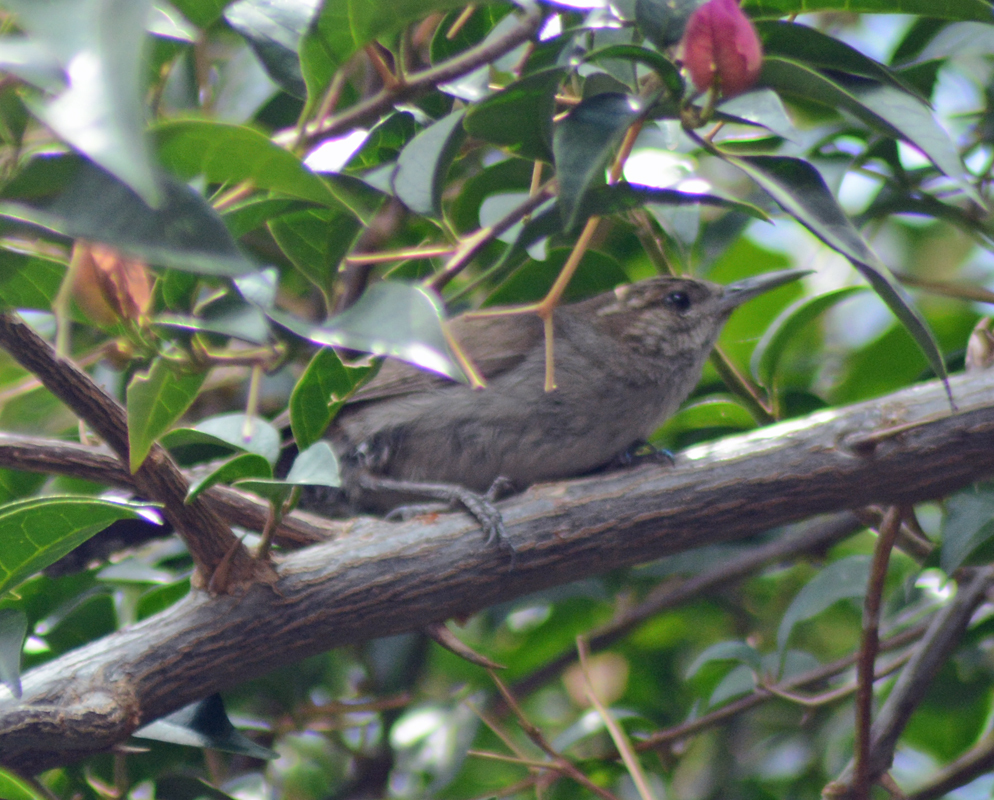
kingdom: Animalia
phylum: Chordata
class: Aves
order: Passeriformes
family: Troglodytidae
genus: Thryomanes
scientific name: Thryomanes bewickii
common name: Bewick's wren
